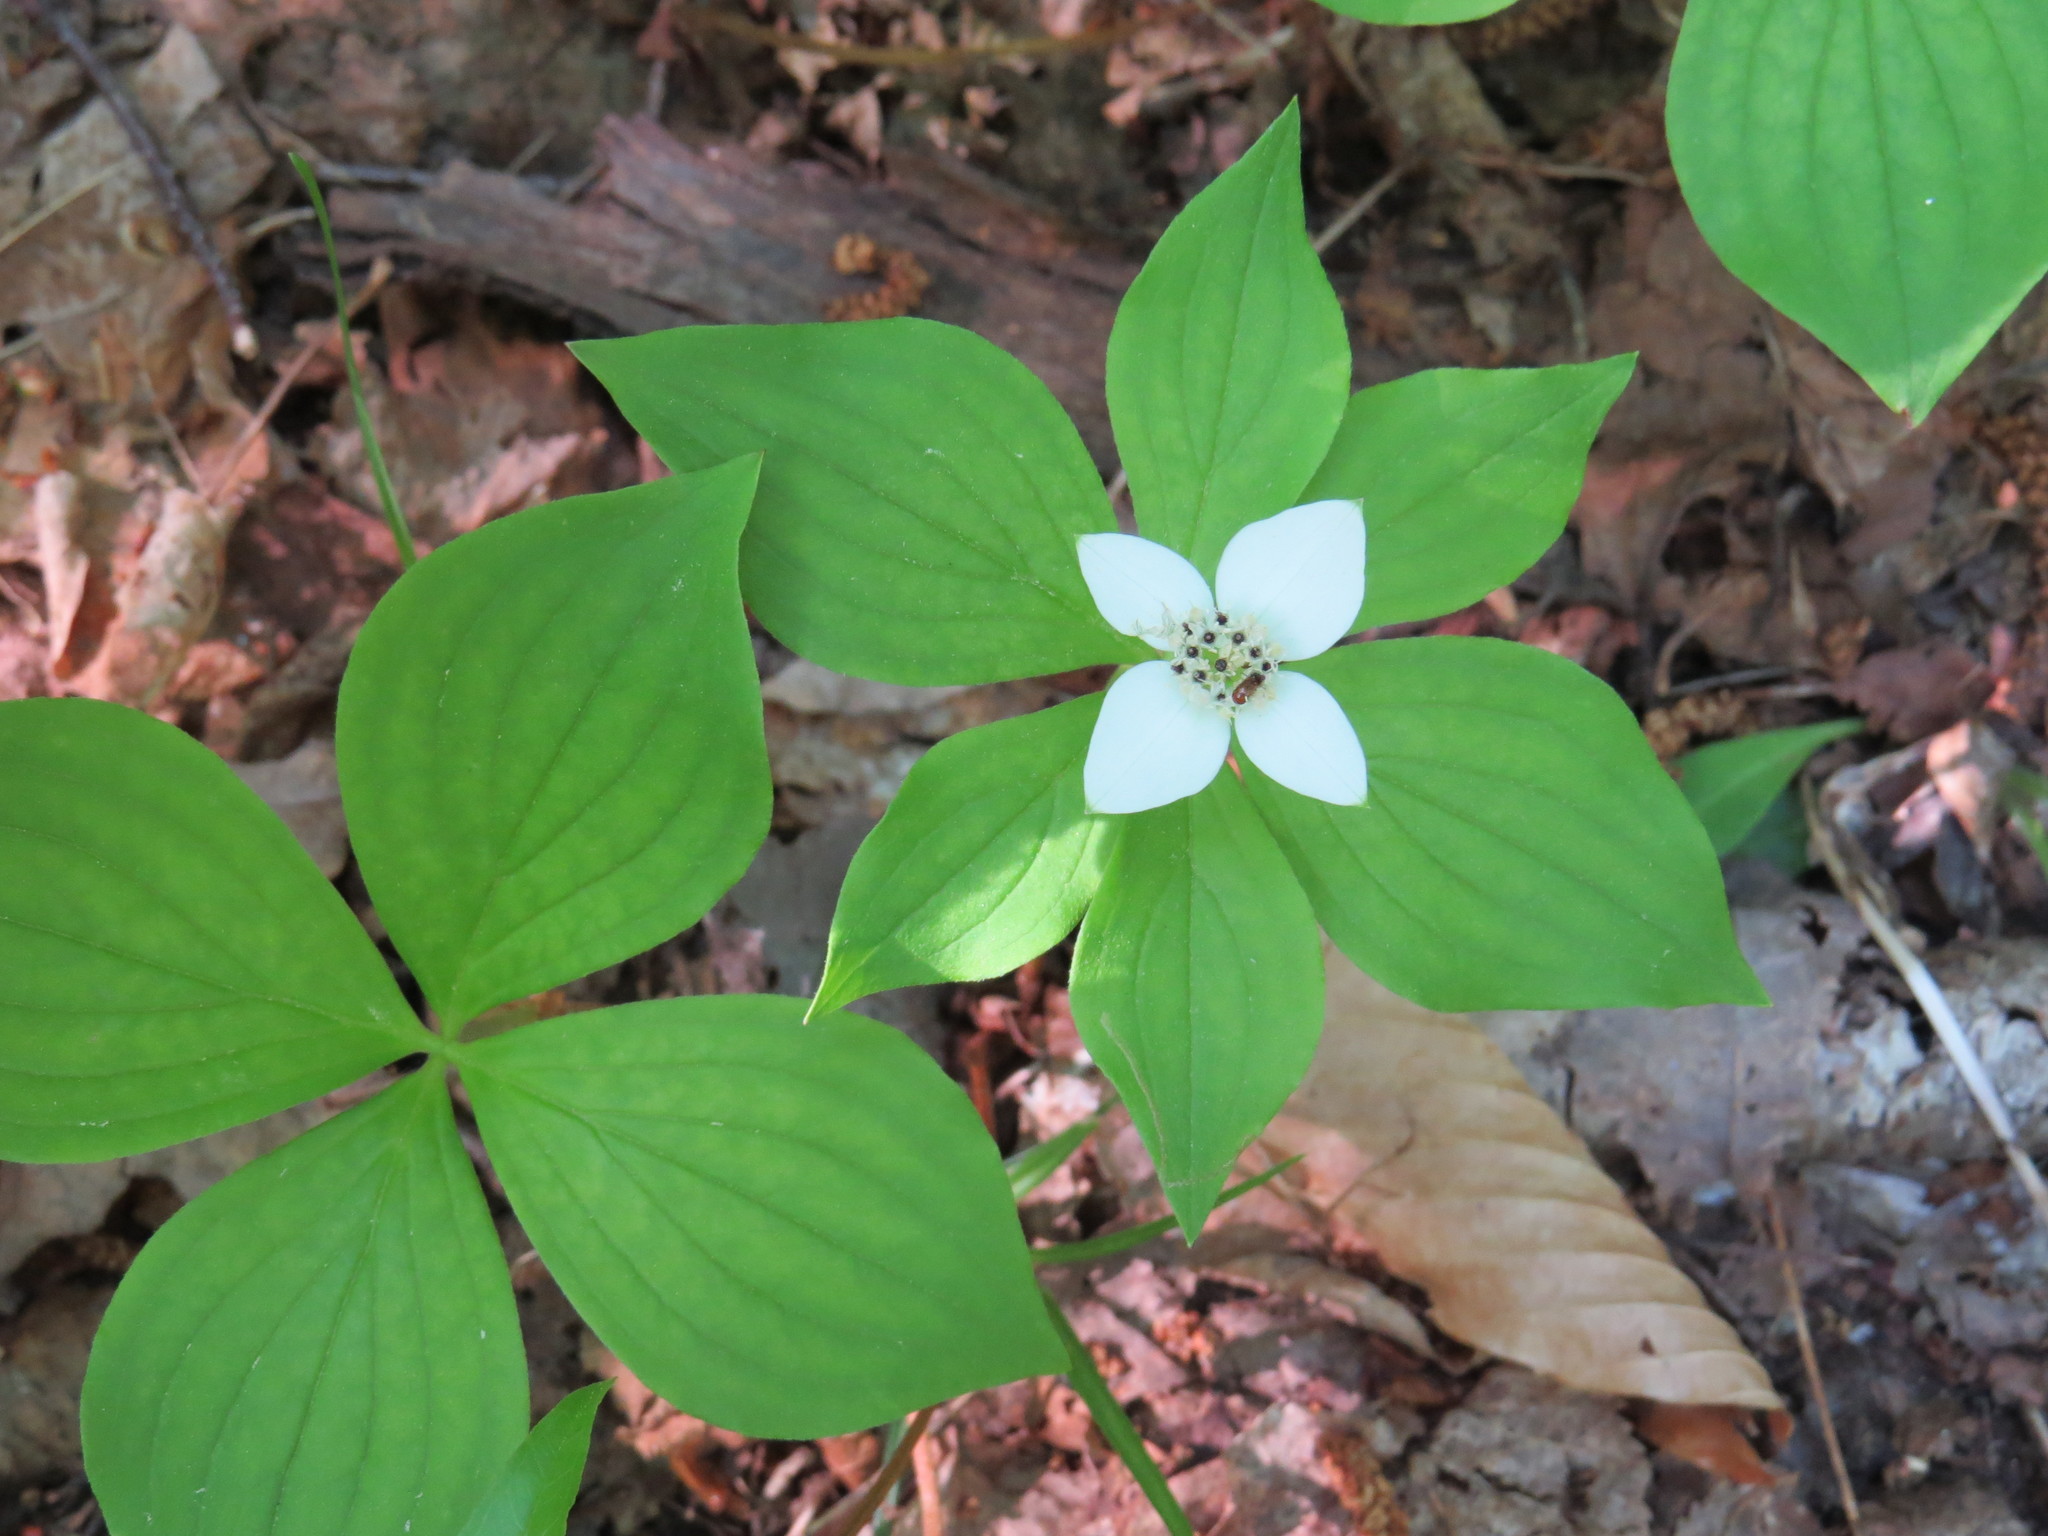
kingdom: Plantae
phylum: Tracheophyta
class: Magnoliopsida
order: Cornales
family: Cornaceae
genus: Cornus
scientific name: Cornus canadensis
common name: Creeping dogwood
